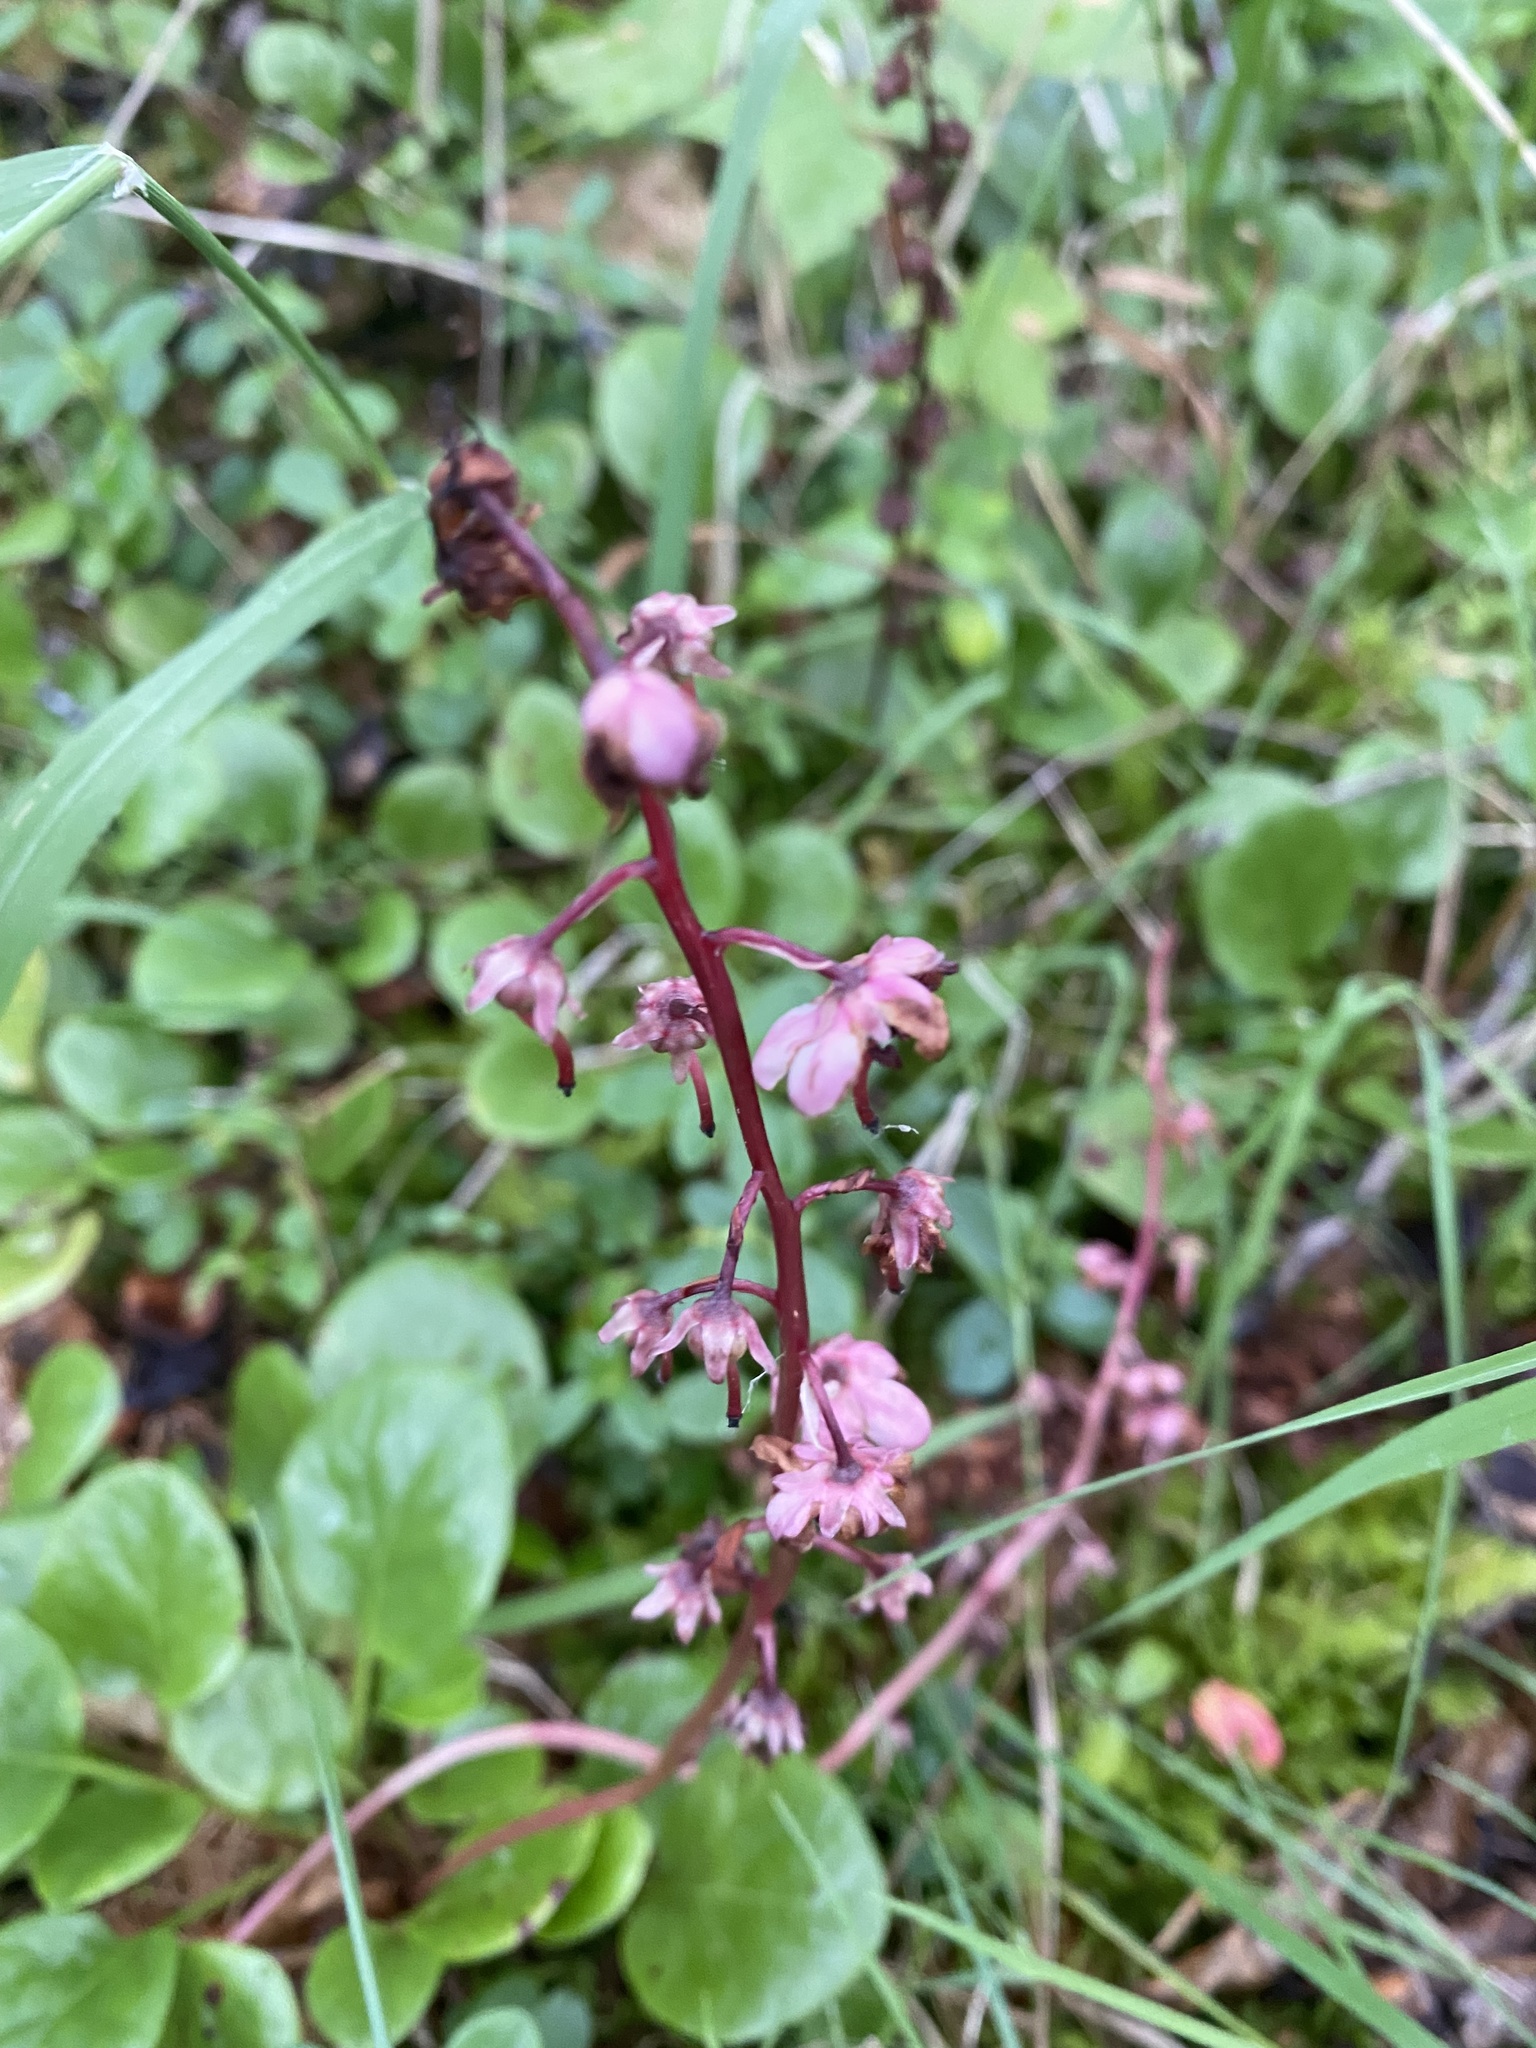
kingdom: Plantae
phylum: Tracheophyta
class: Magnoliopsida
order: Ericales
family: Ericaceae
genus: Pyrola
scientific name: Pyrola asarifolia
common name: Bog wintergreen
